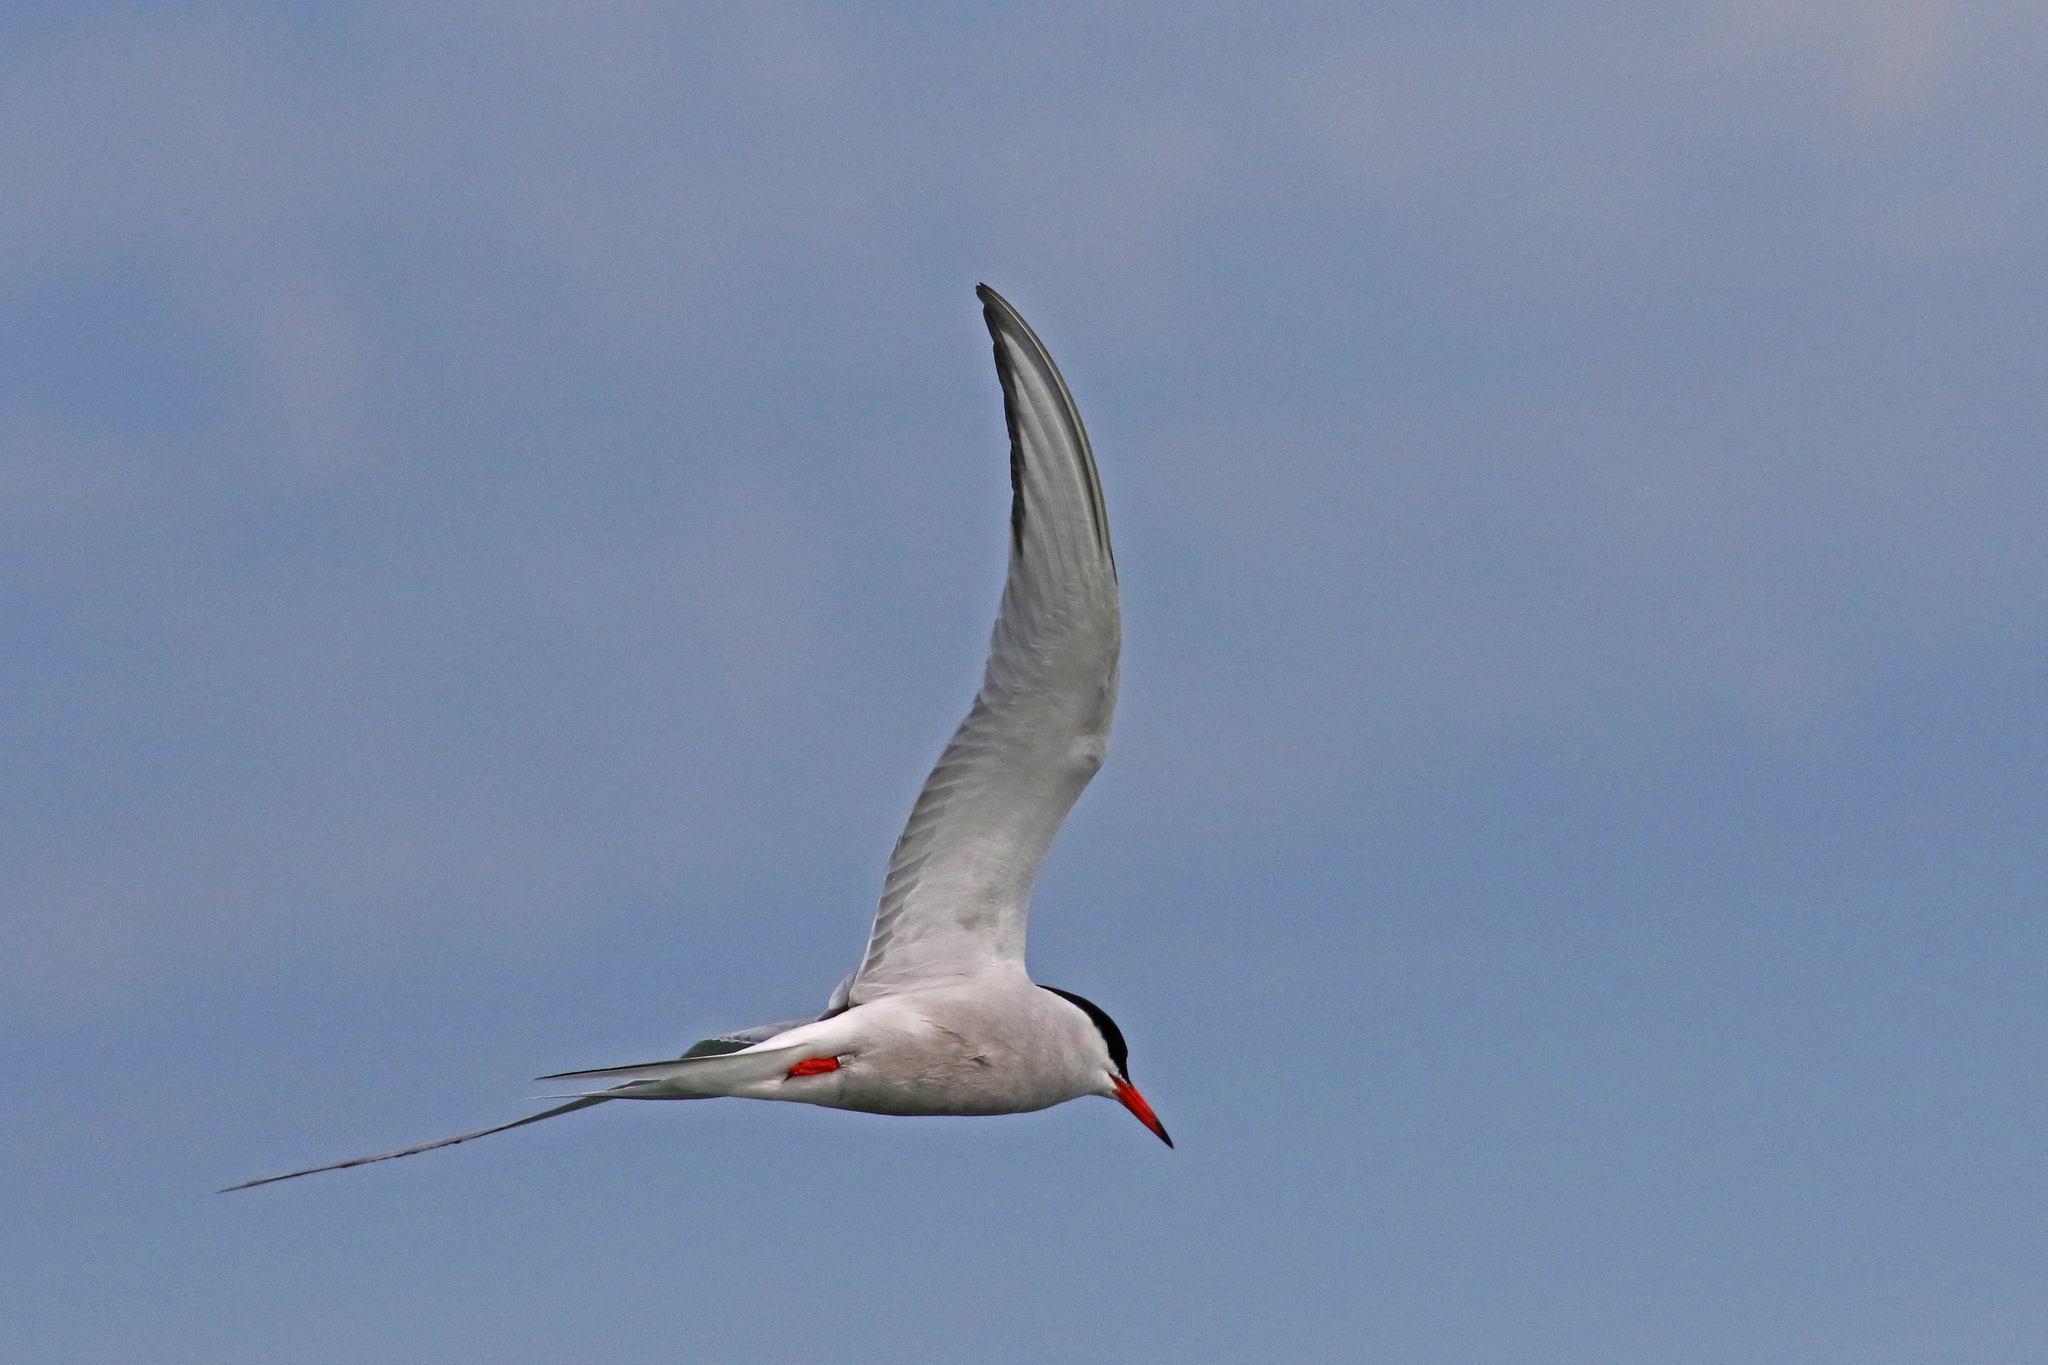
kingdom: Animalia
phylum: Chordata
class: Aves
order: Charadriiformes
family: Laridae
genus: Sterna
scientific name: Sterna hirundo
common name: Common tern
